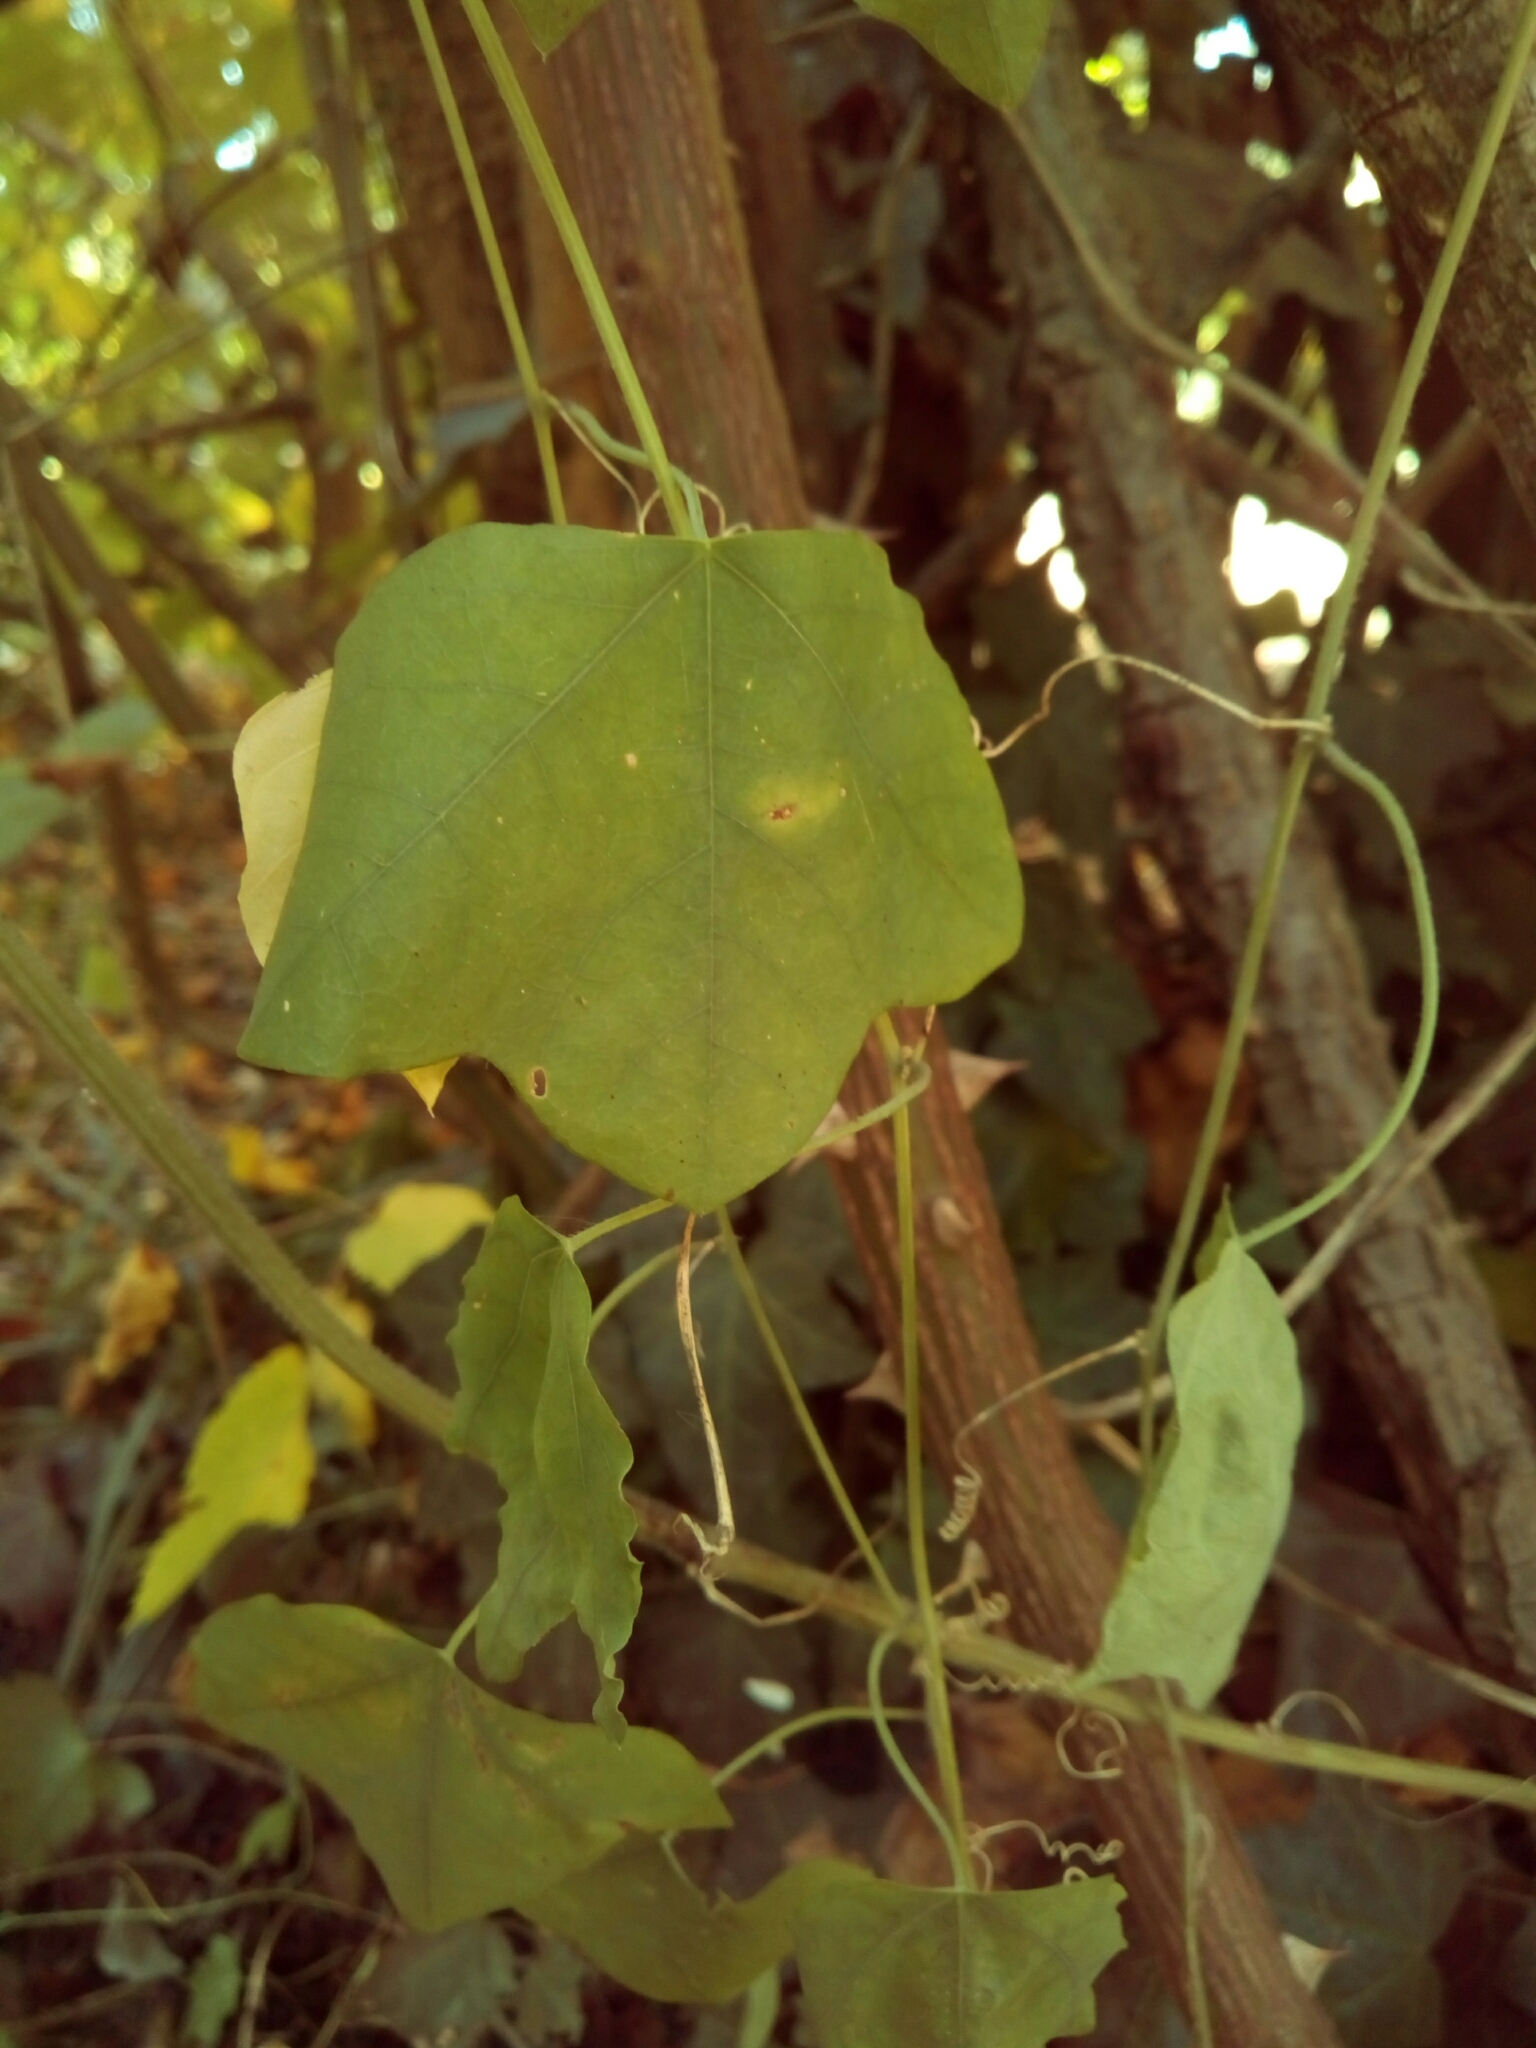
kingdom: Plantae
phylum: Tracheophyta
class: Magnoliopsida
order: Malpighiales
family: Passifloraceae
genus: Passiflora
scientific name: Passiflora lutea
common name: Yellow passionflower
